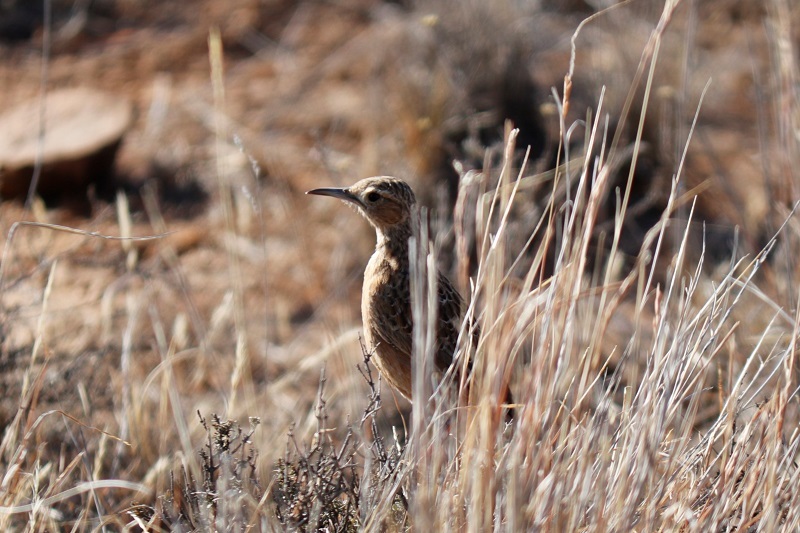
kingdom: Animalia
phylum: Chordata
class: Aves
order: Passeriformes
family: Alaudidae
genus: Chersomanes
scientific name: Chersomanes albofasciata
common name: Spike-heeled lark
